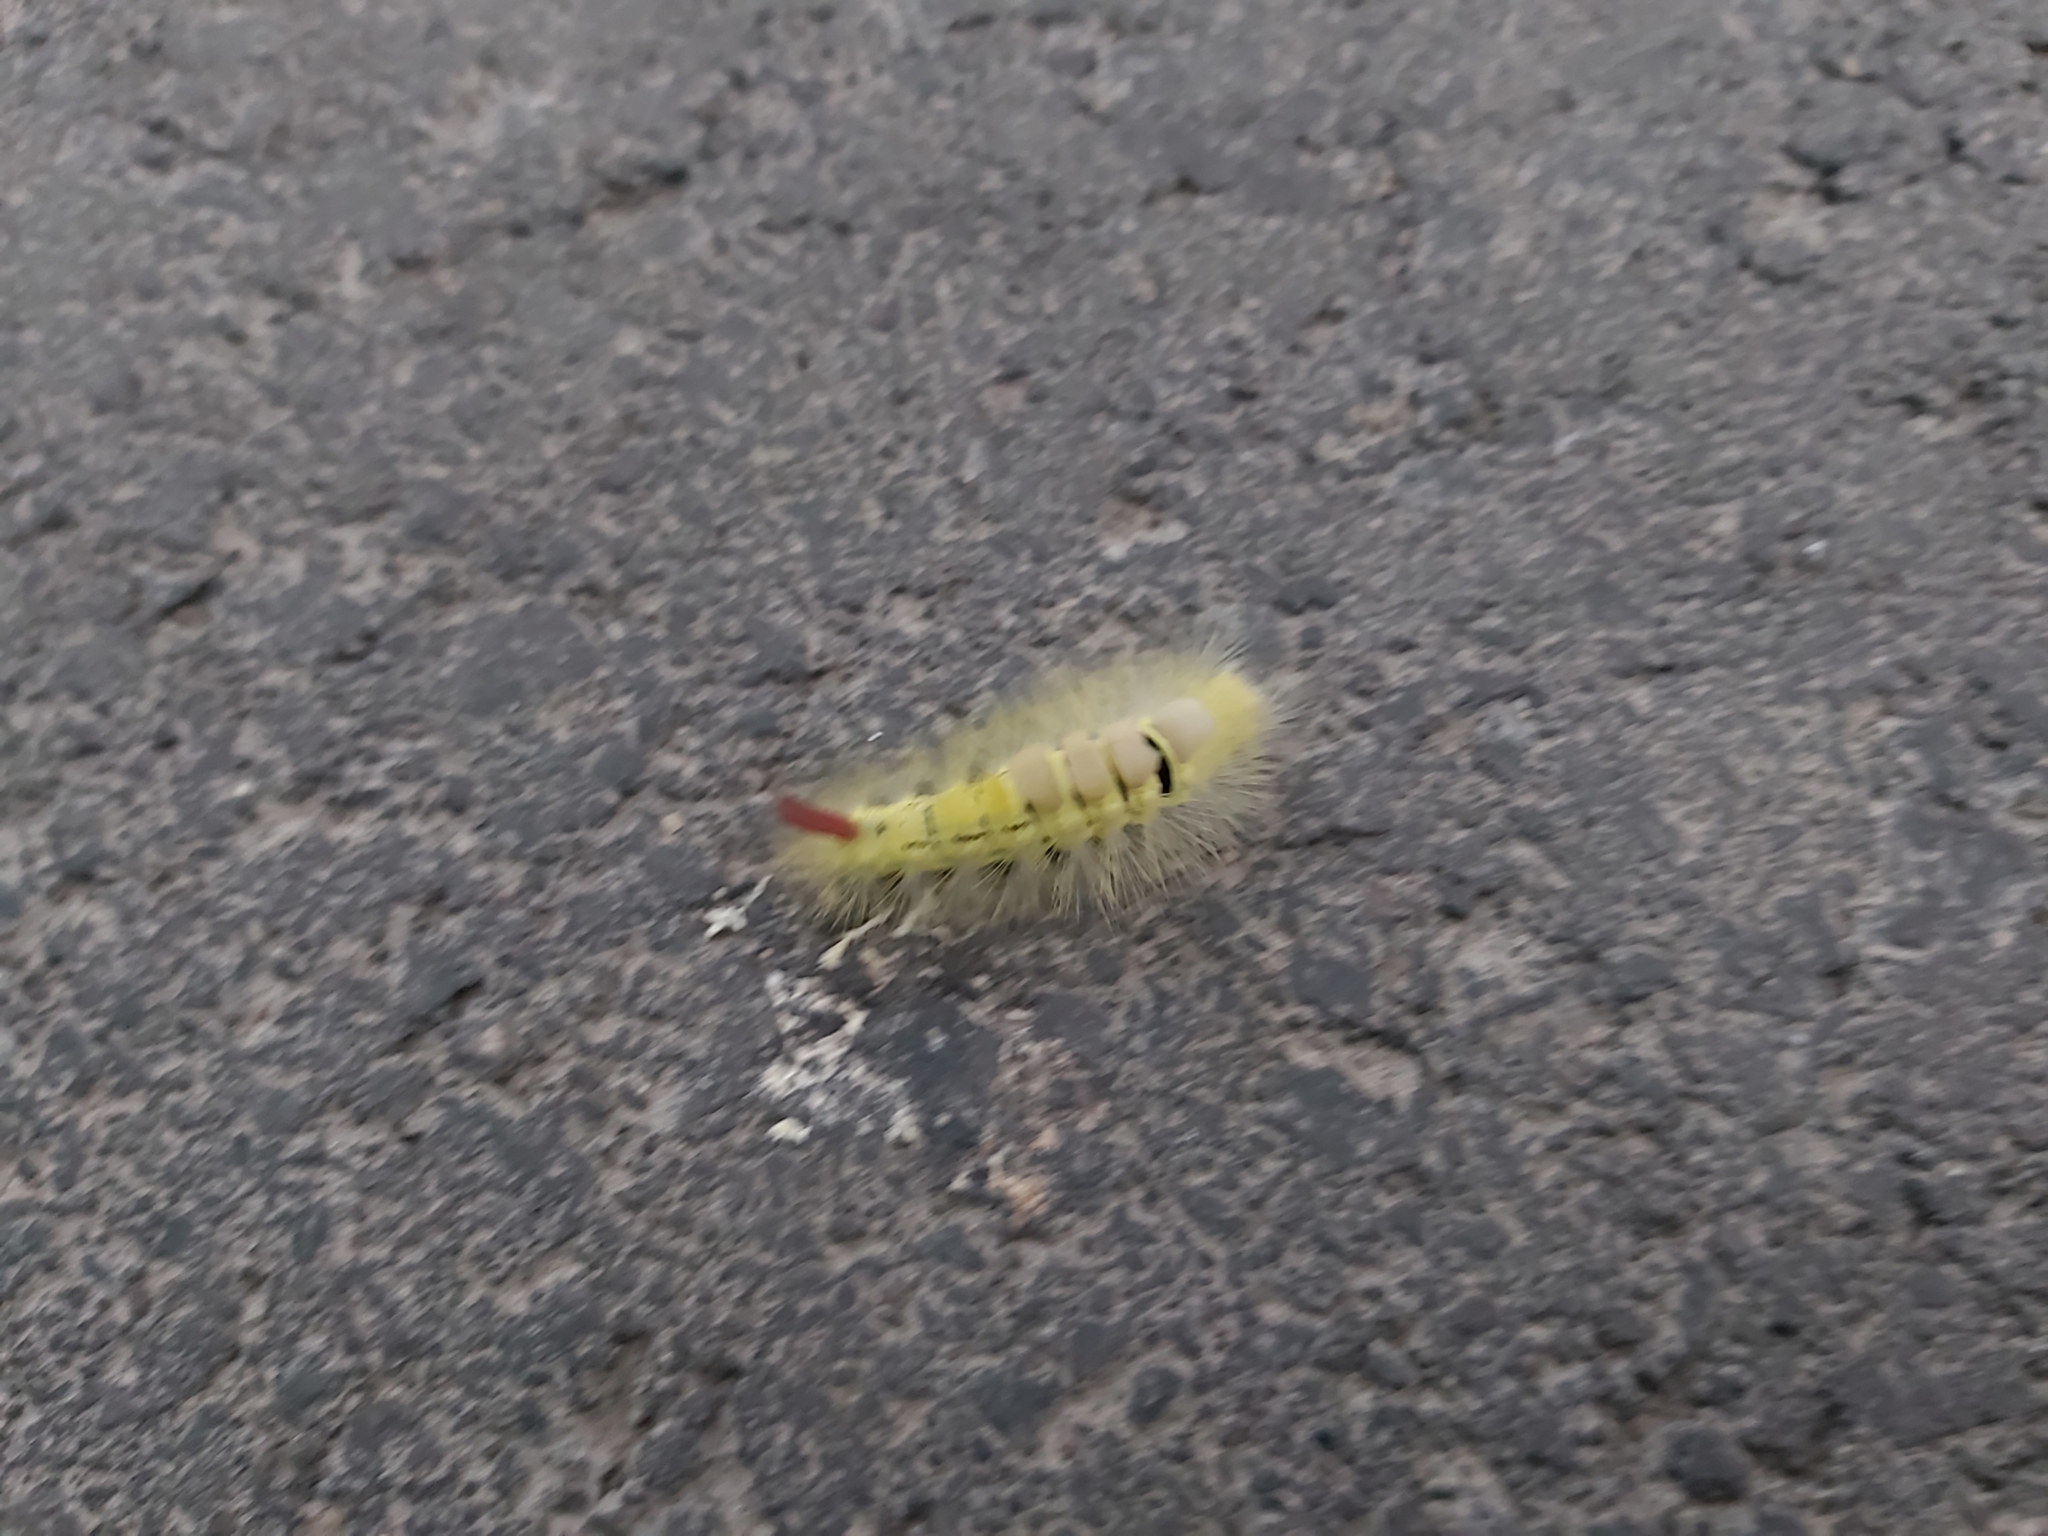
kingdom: Animalia
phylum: Arthropoda
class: Insecta
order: Lepidoptera
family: Erebidae
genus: Calliteara
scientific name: Calliteara pudibunda
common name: Pale tussock
